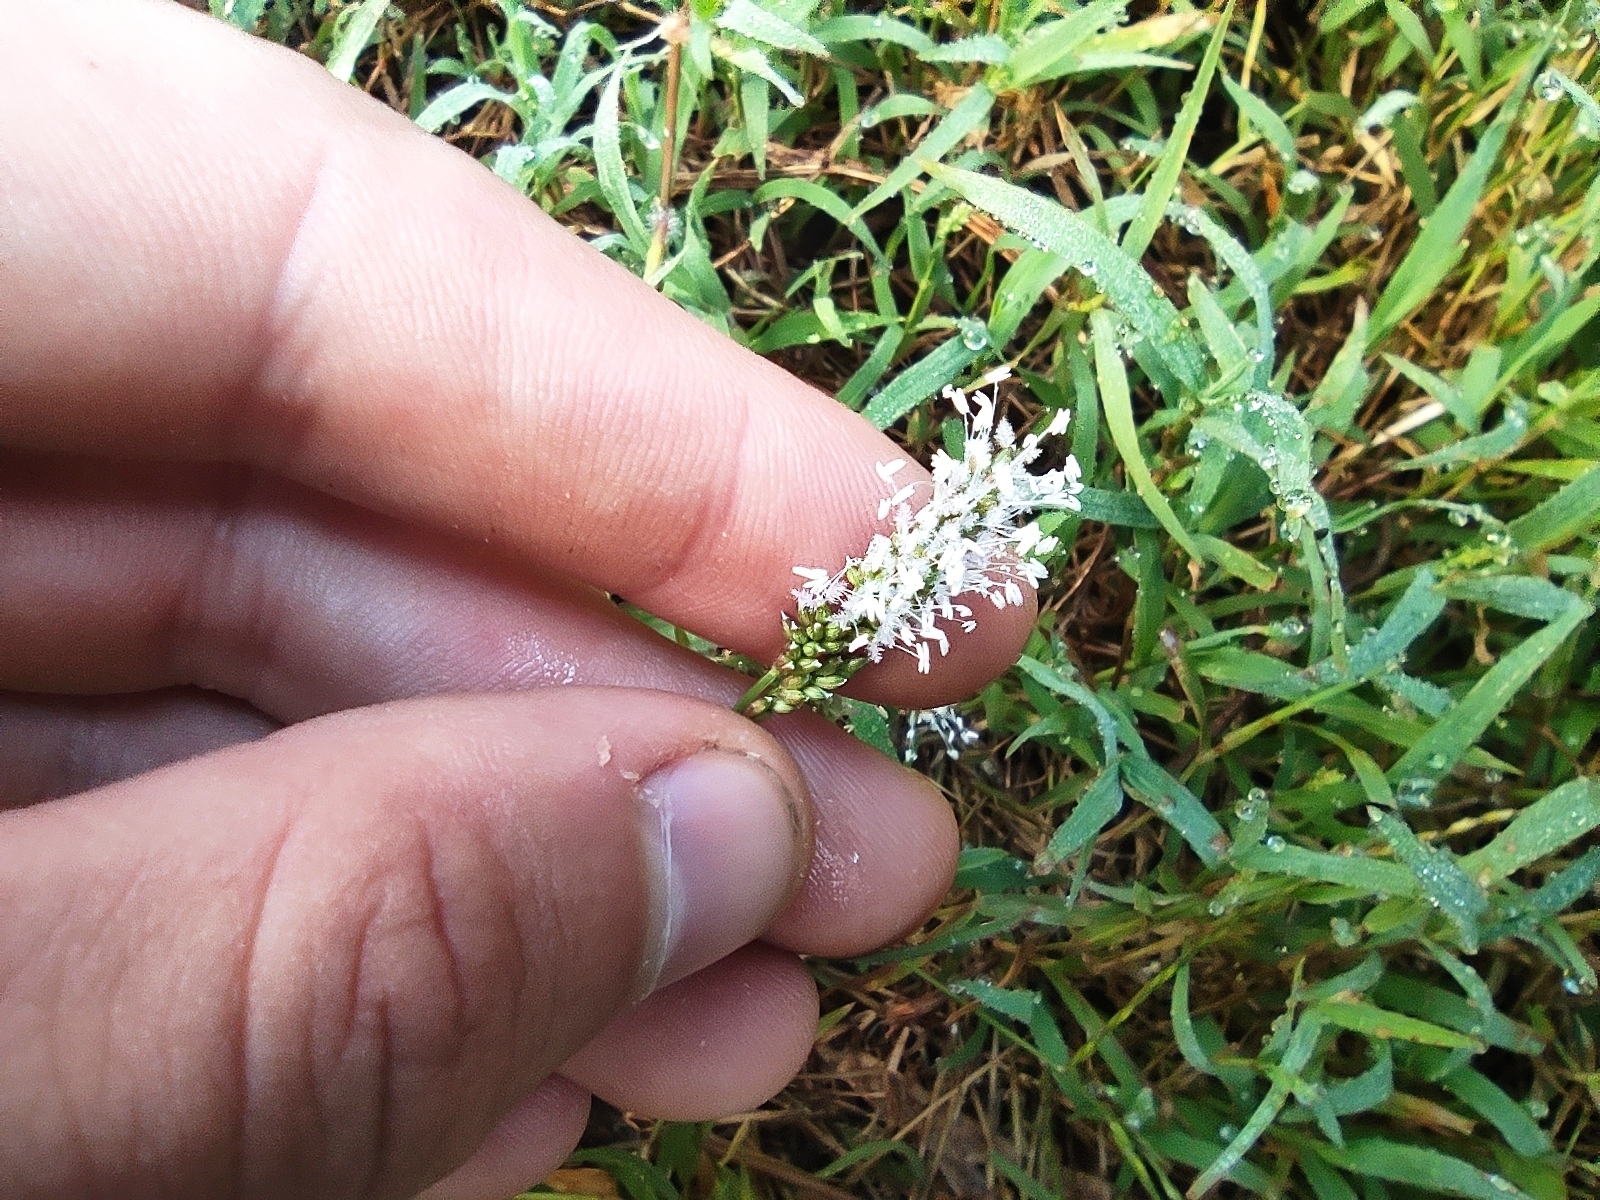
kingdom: Plantae
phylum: Tracheophyta
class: Liliopsida
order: Poales
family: Poaceae
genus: Acroceras
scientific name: Acroceras hubbardii
